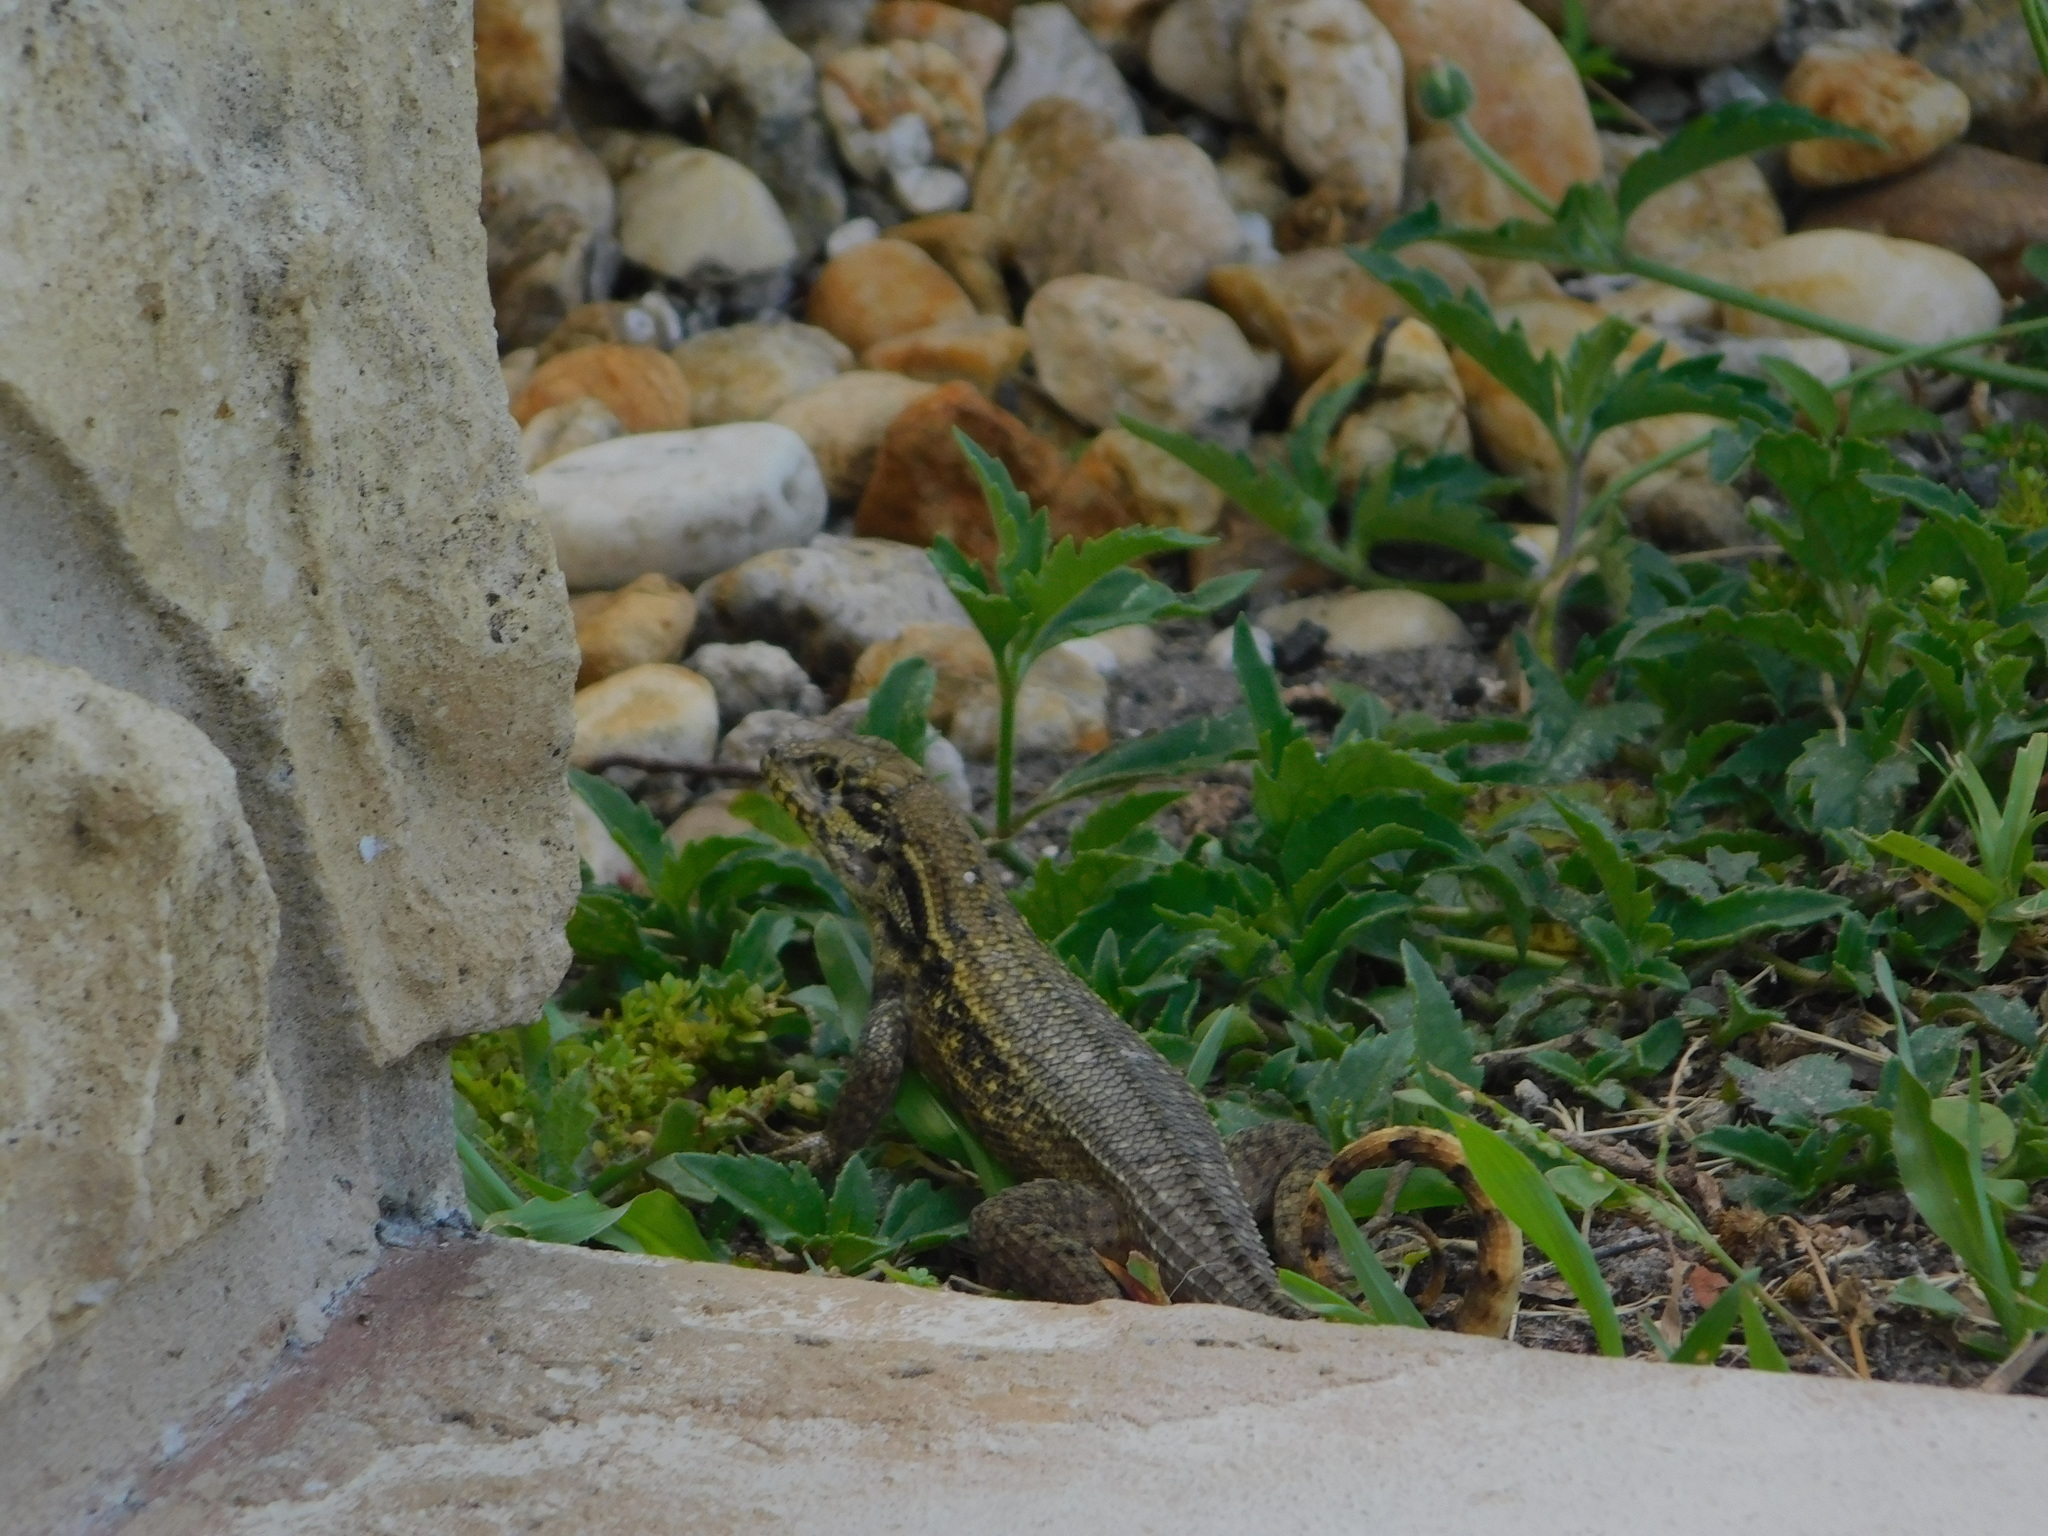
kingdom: Animalia
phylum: Chordata
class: Squamata
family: Leiocephalidae
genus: Leiocephalus
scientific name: Leiocephalus carinatus
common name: Northern curly-tailed lizard
